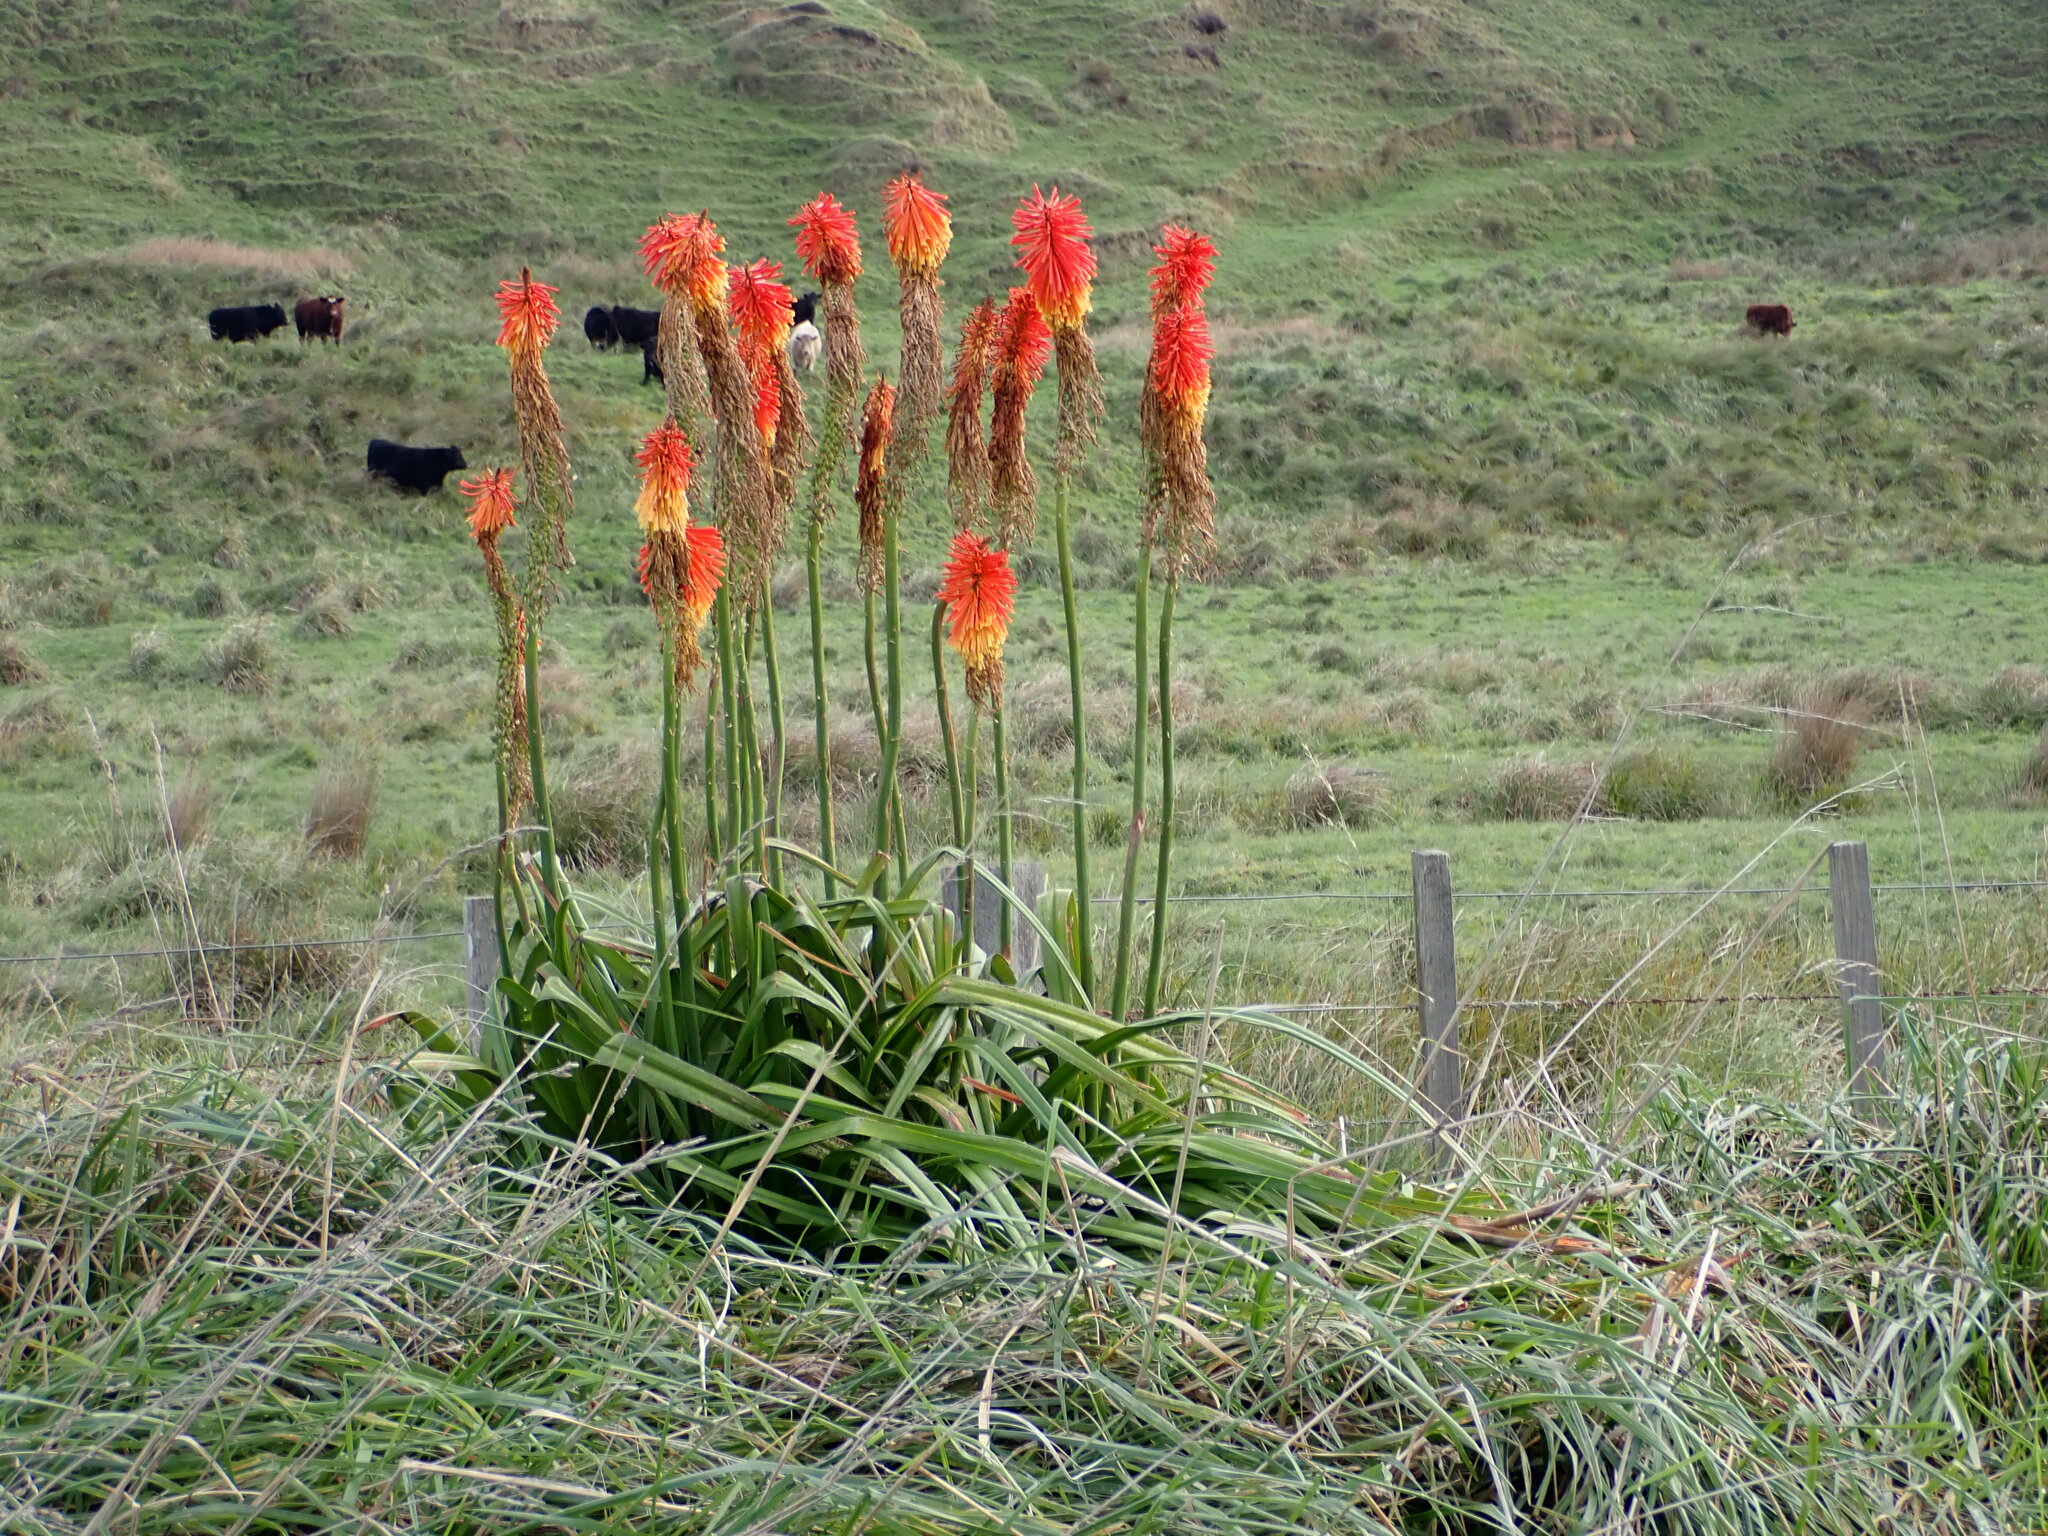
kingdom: Plantae
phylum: Tracheophyta
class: Liliopsida
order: Asparagales
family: Asphodelaceae
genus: Kniphofia
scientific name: Kniphofia uvaria
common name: Red-hot-poker
